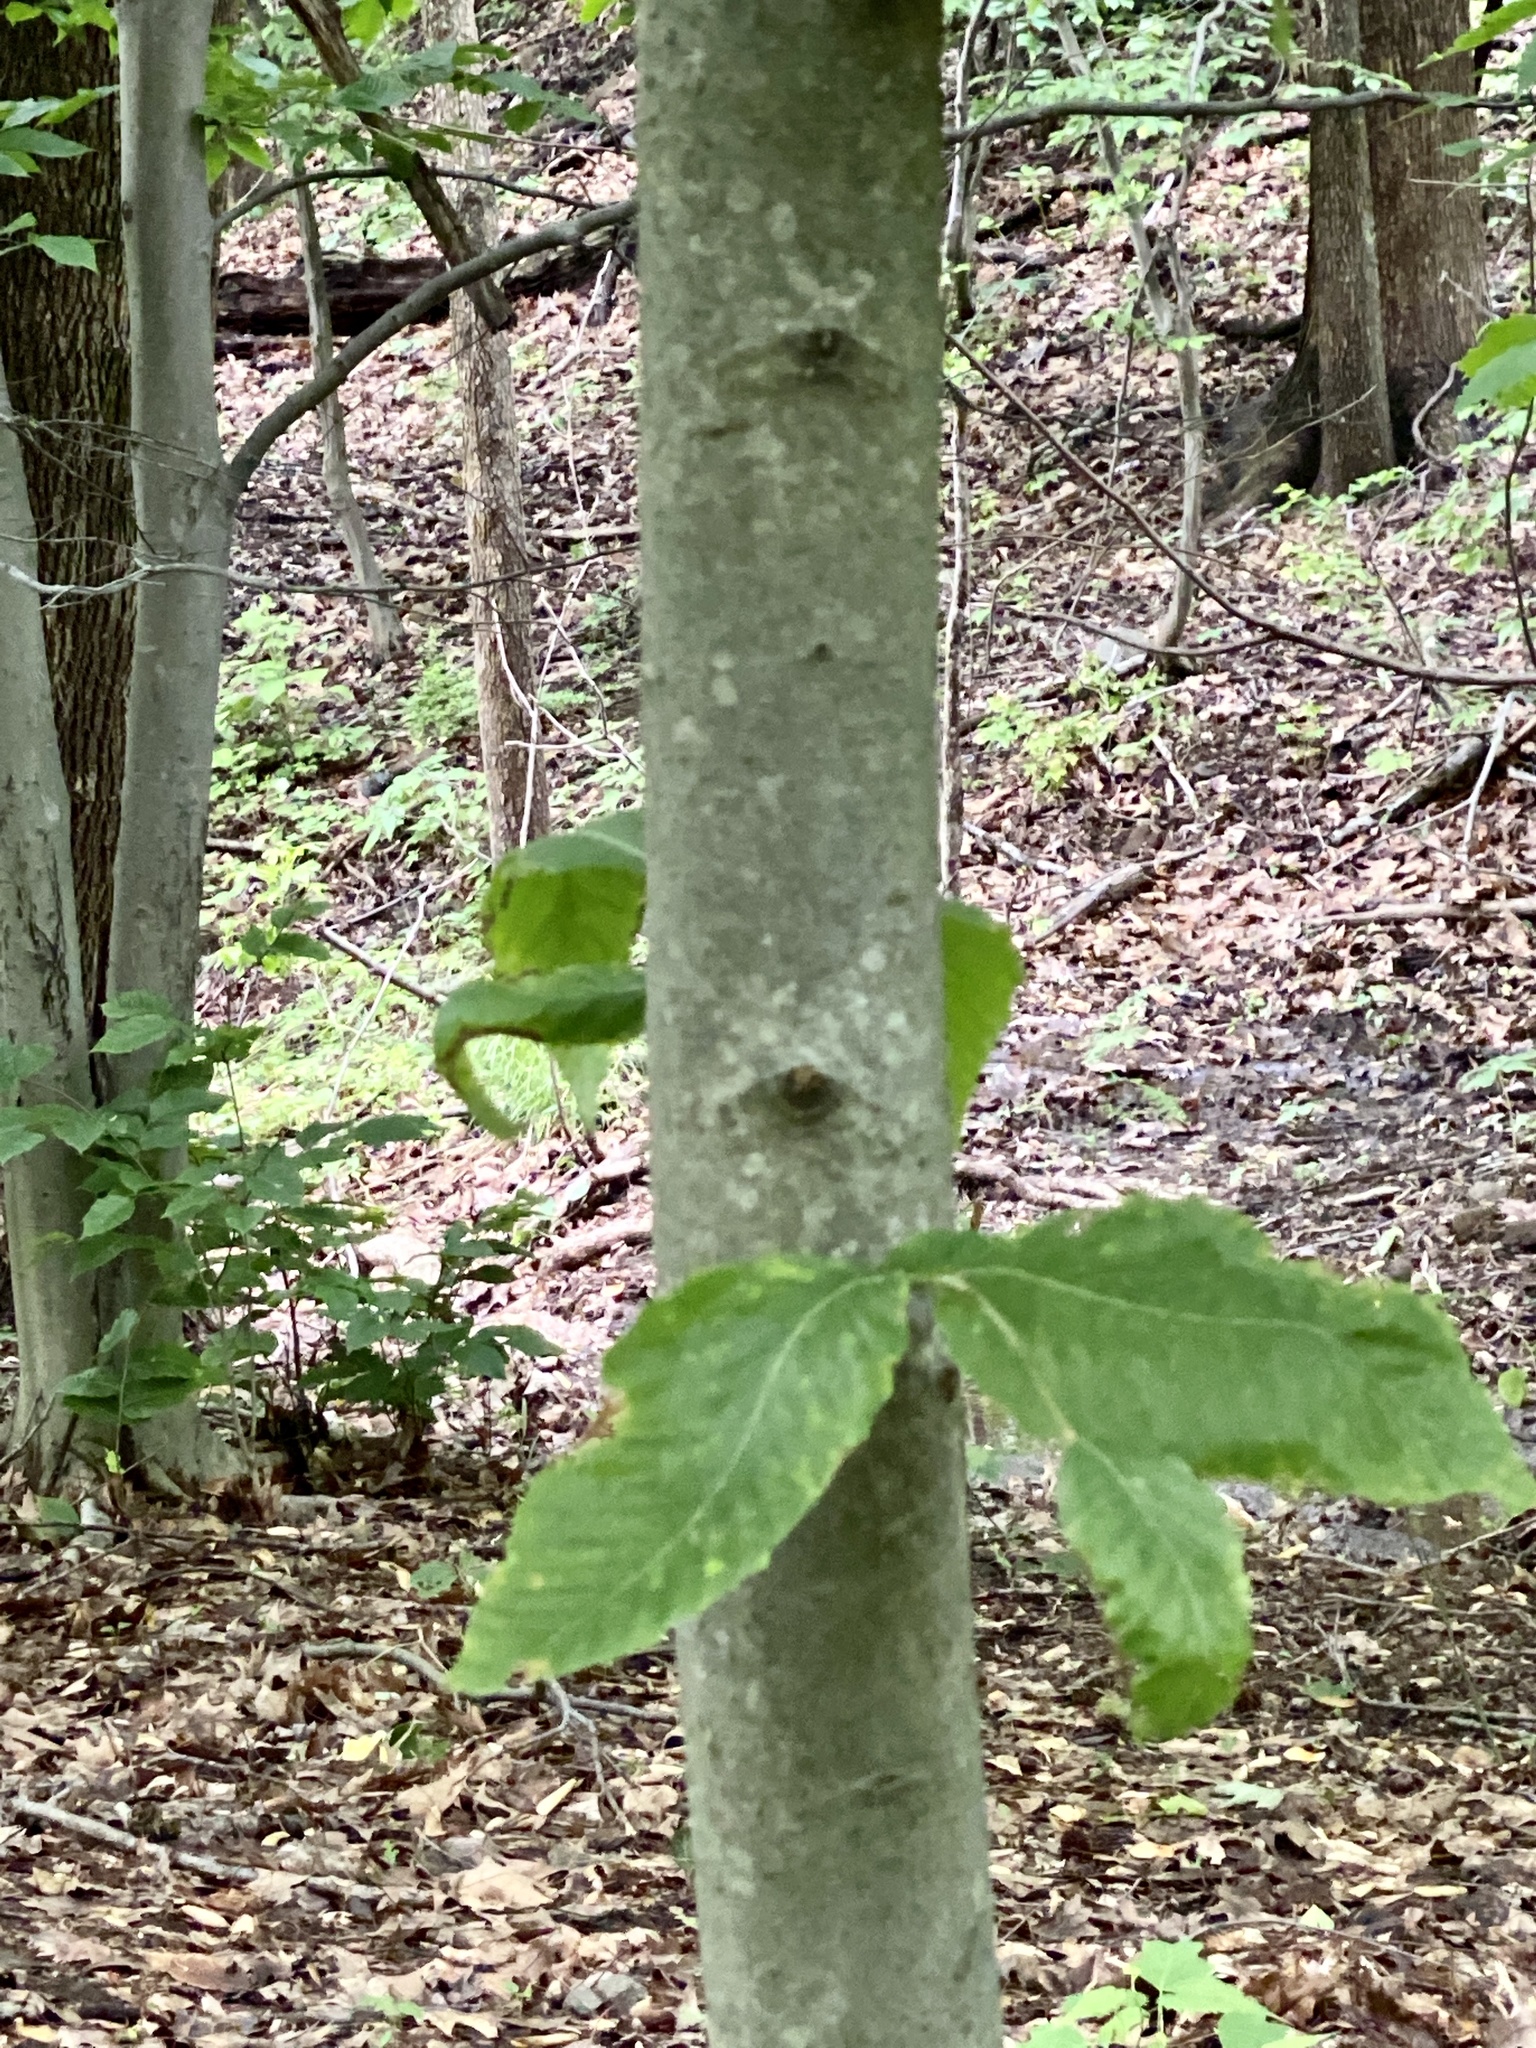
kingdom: Animalia
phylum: Nematoda
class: Chromadorea
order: Rhabditida
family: Anguinidae
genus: Litylenchus
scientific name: Litylenchus crenatae
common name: Beech leaf disease
